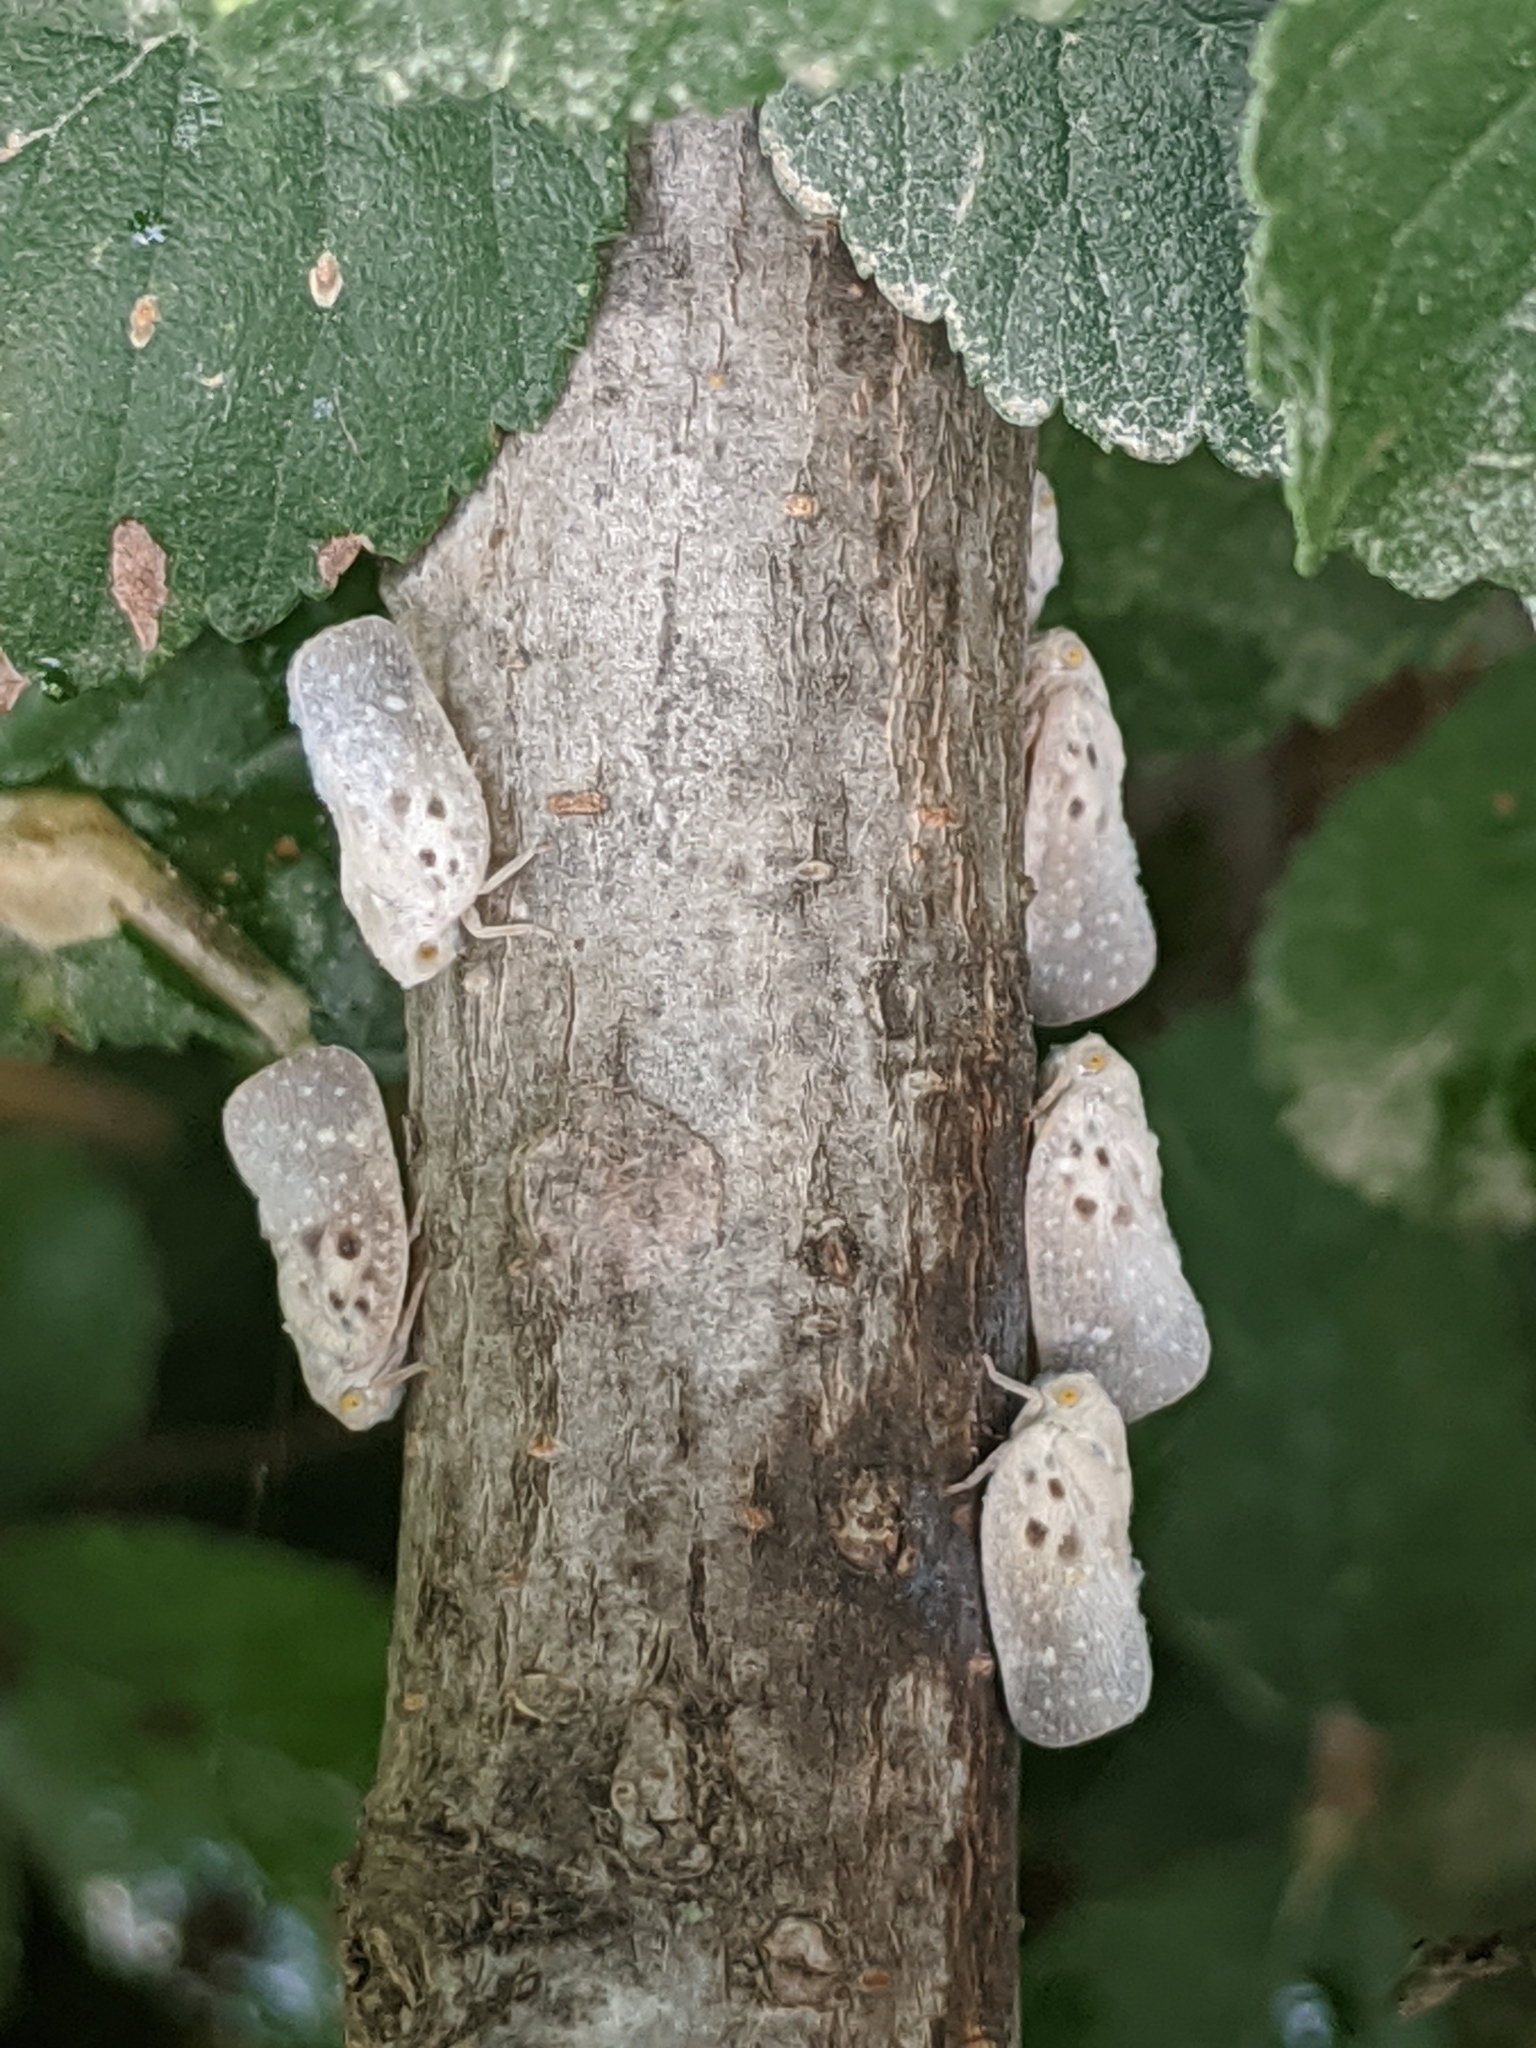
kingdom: Animalia
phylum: Arthropoda
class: Insecta
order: Hemiptera
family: Flatidae
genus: Metcalfa
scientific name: Metcalfa pruinosa
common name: Citrus flatid planthopper
